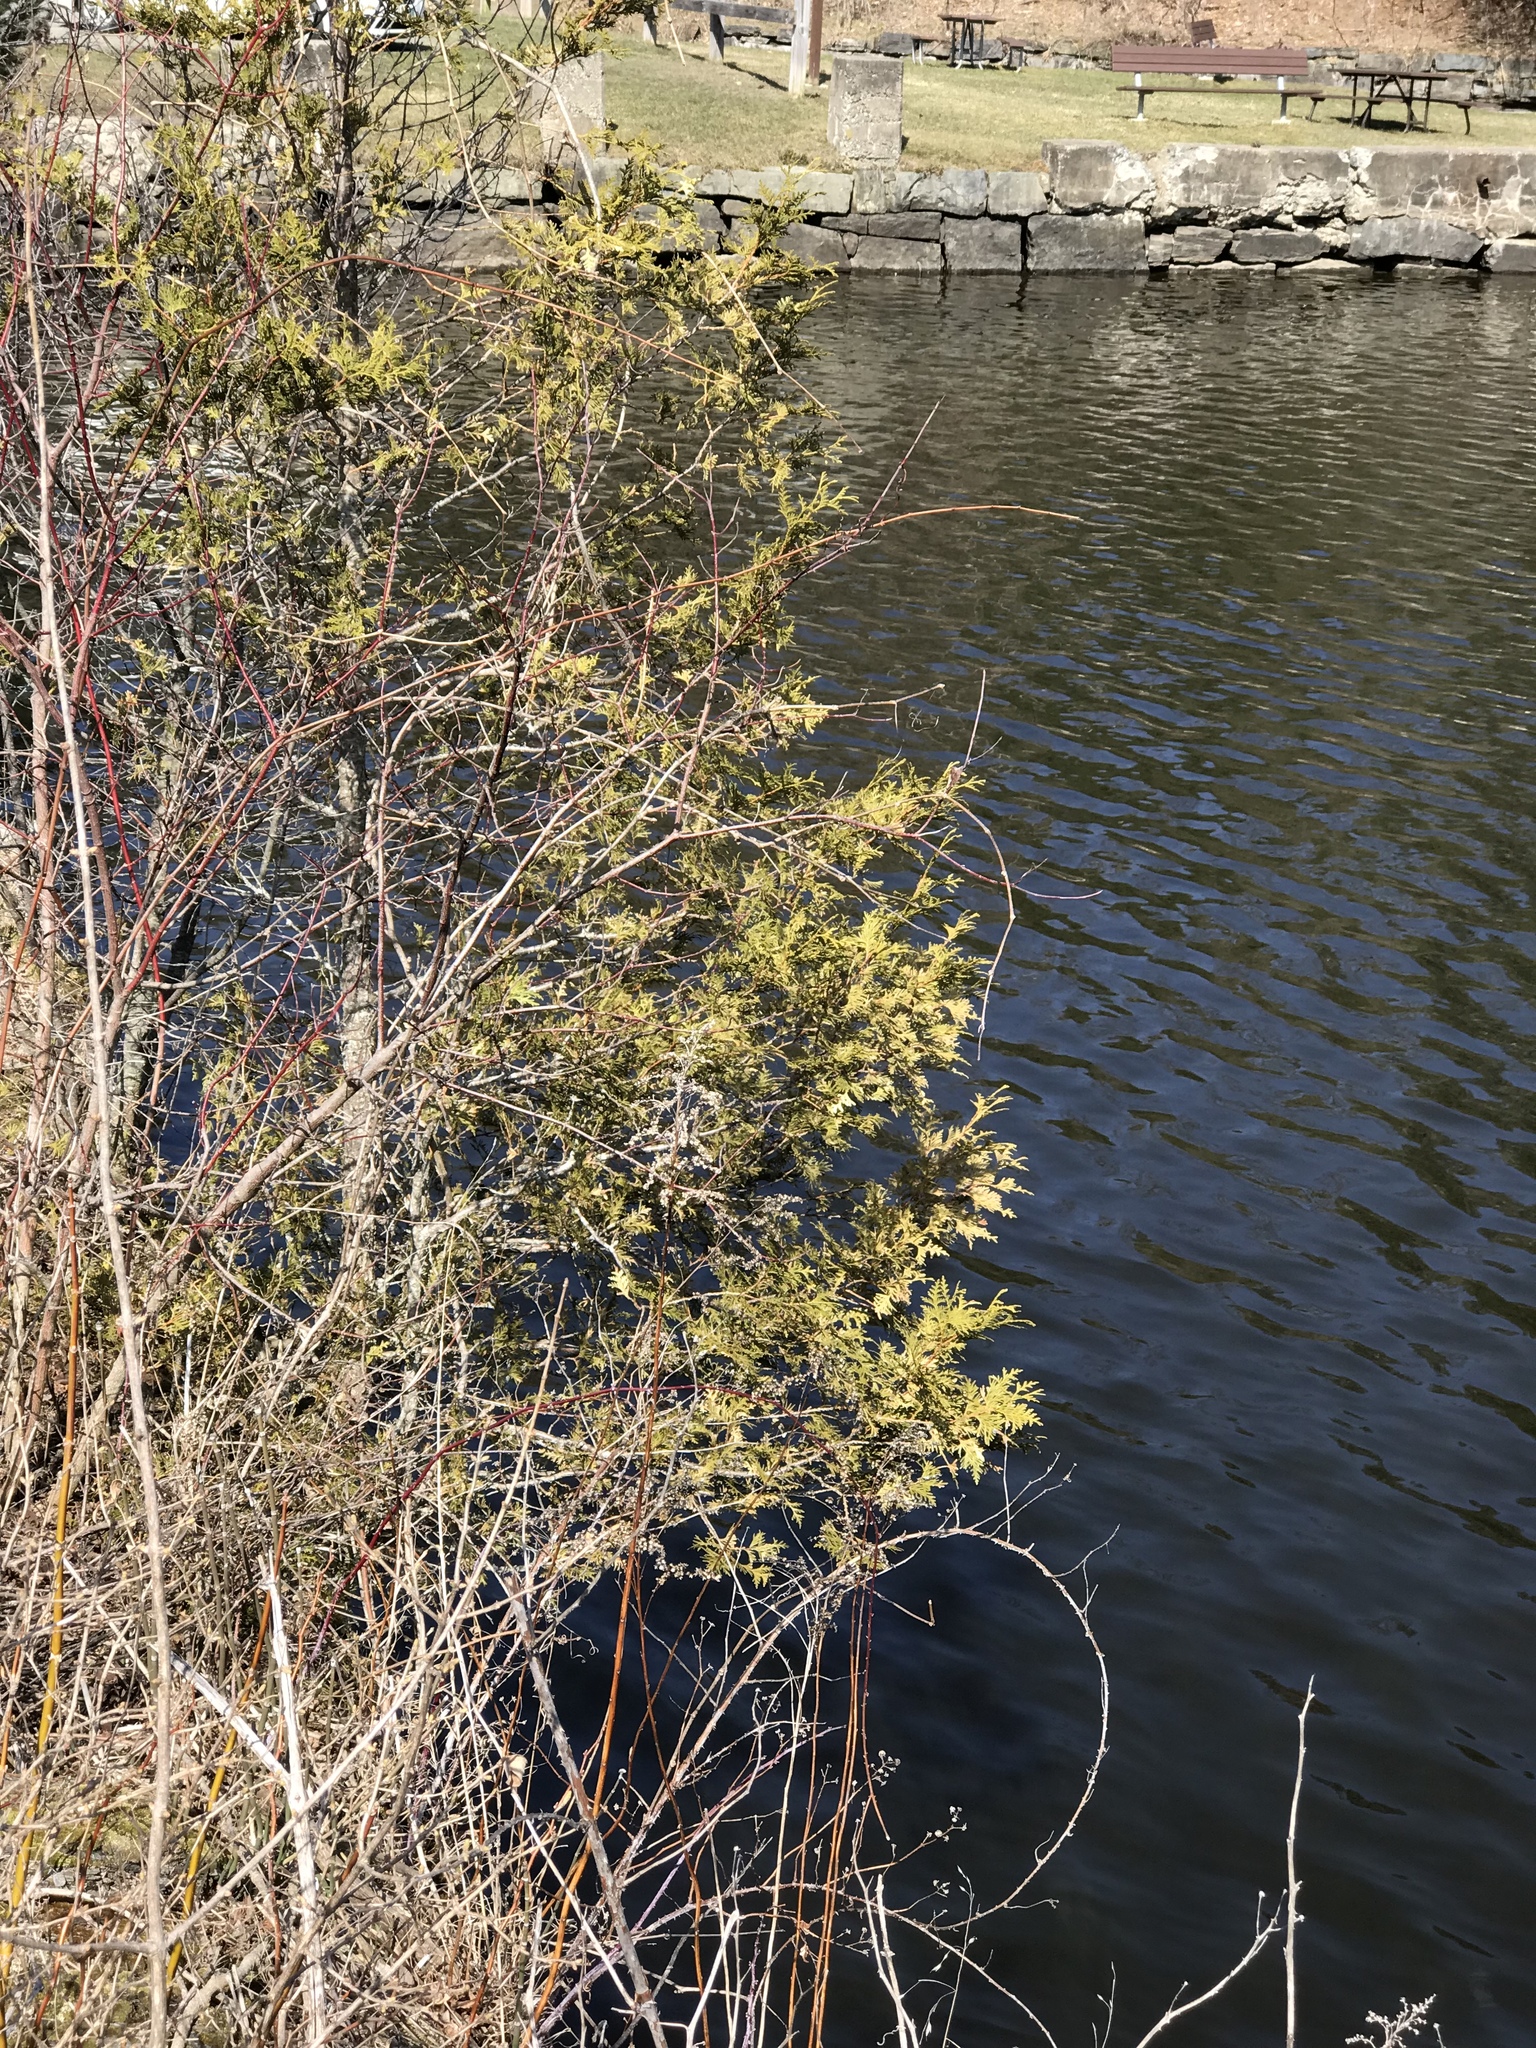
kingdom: Plantae
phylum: Tracheophyta
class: Pinopsida
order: Pinales
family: Cupressaceae
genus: Thuja
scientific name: Thuja occidentalis
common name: Northern white-cedar
